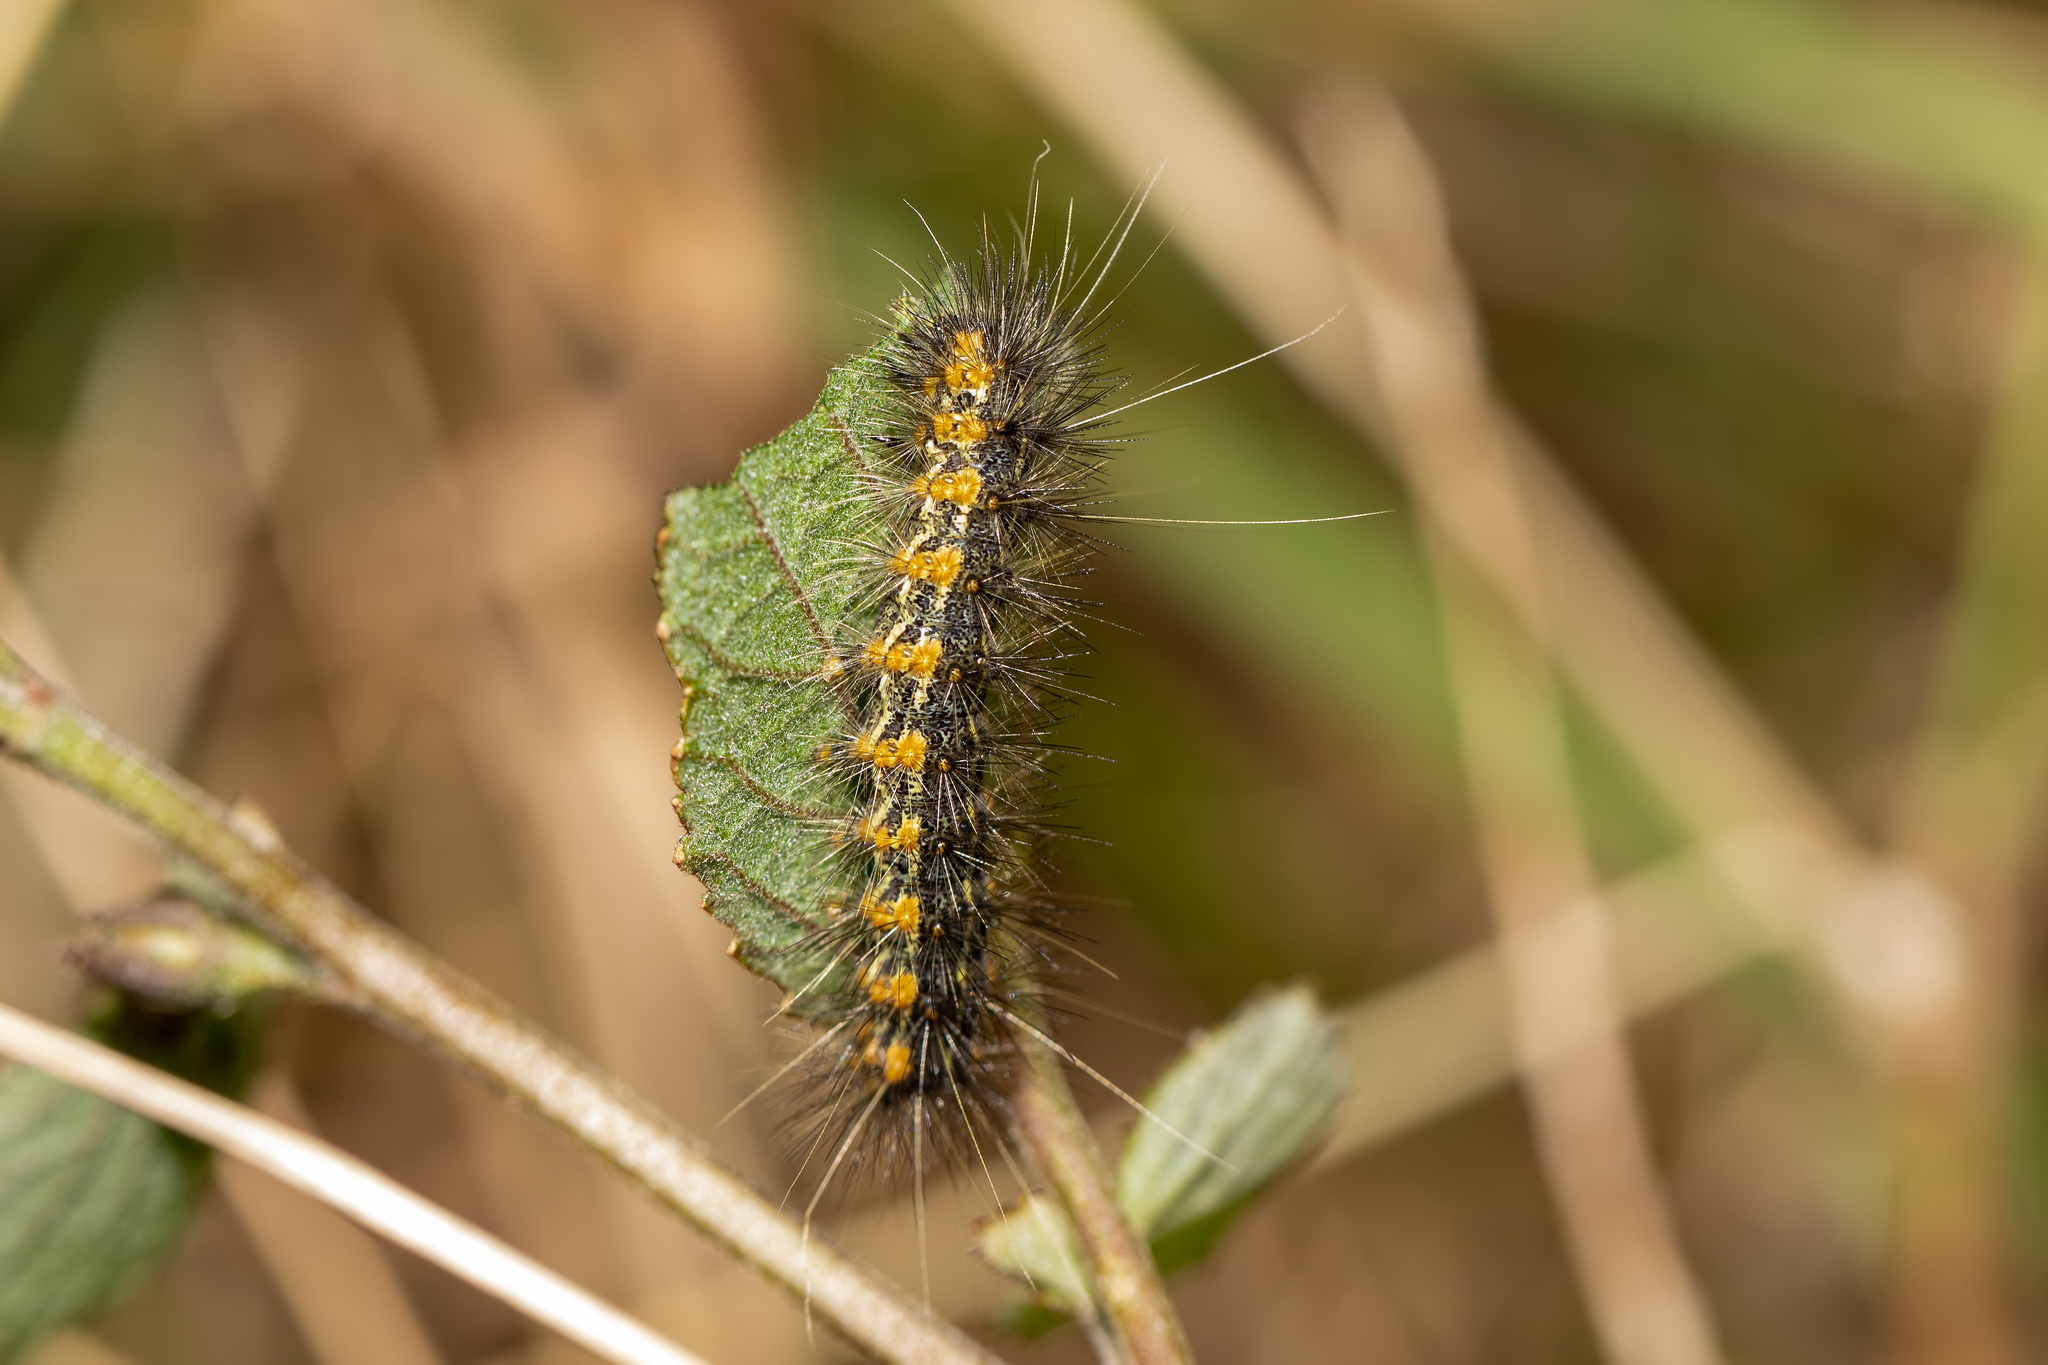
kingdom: Animalia
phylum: Arthropoda
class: Insecta
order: Lepidoptera
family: Erebidae
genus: Estigmene
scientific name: Estigmene acrea
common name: Salt marsh moth
